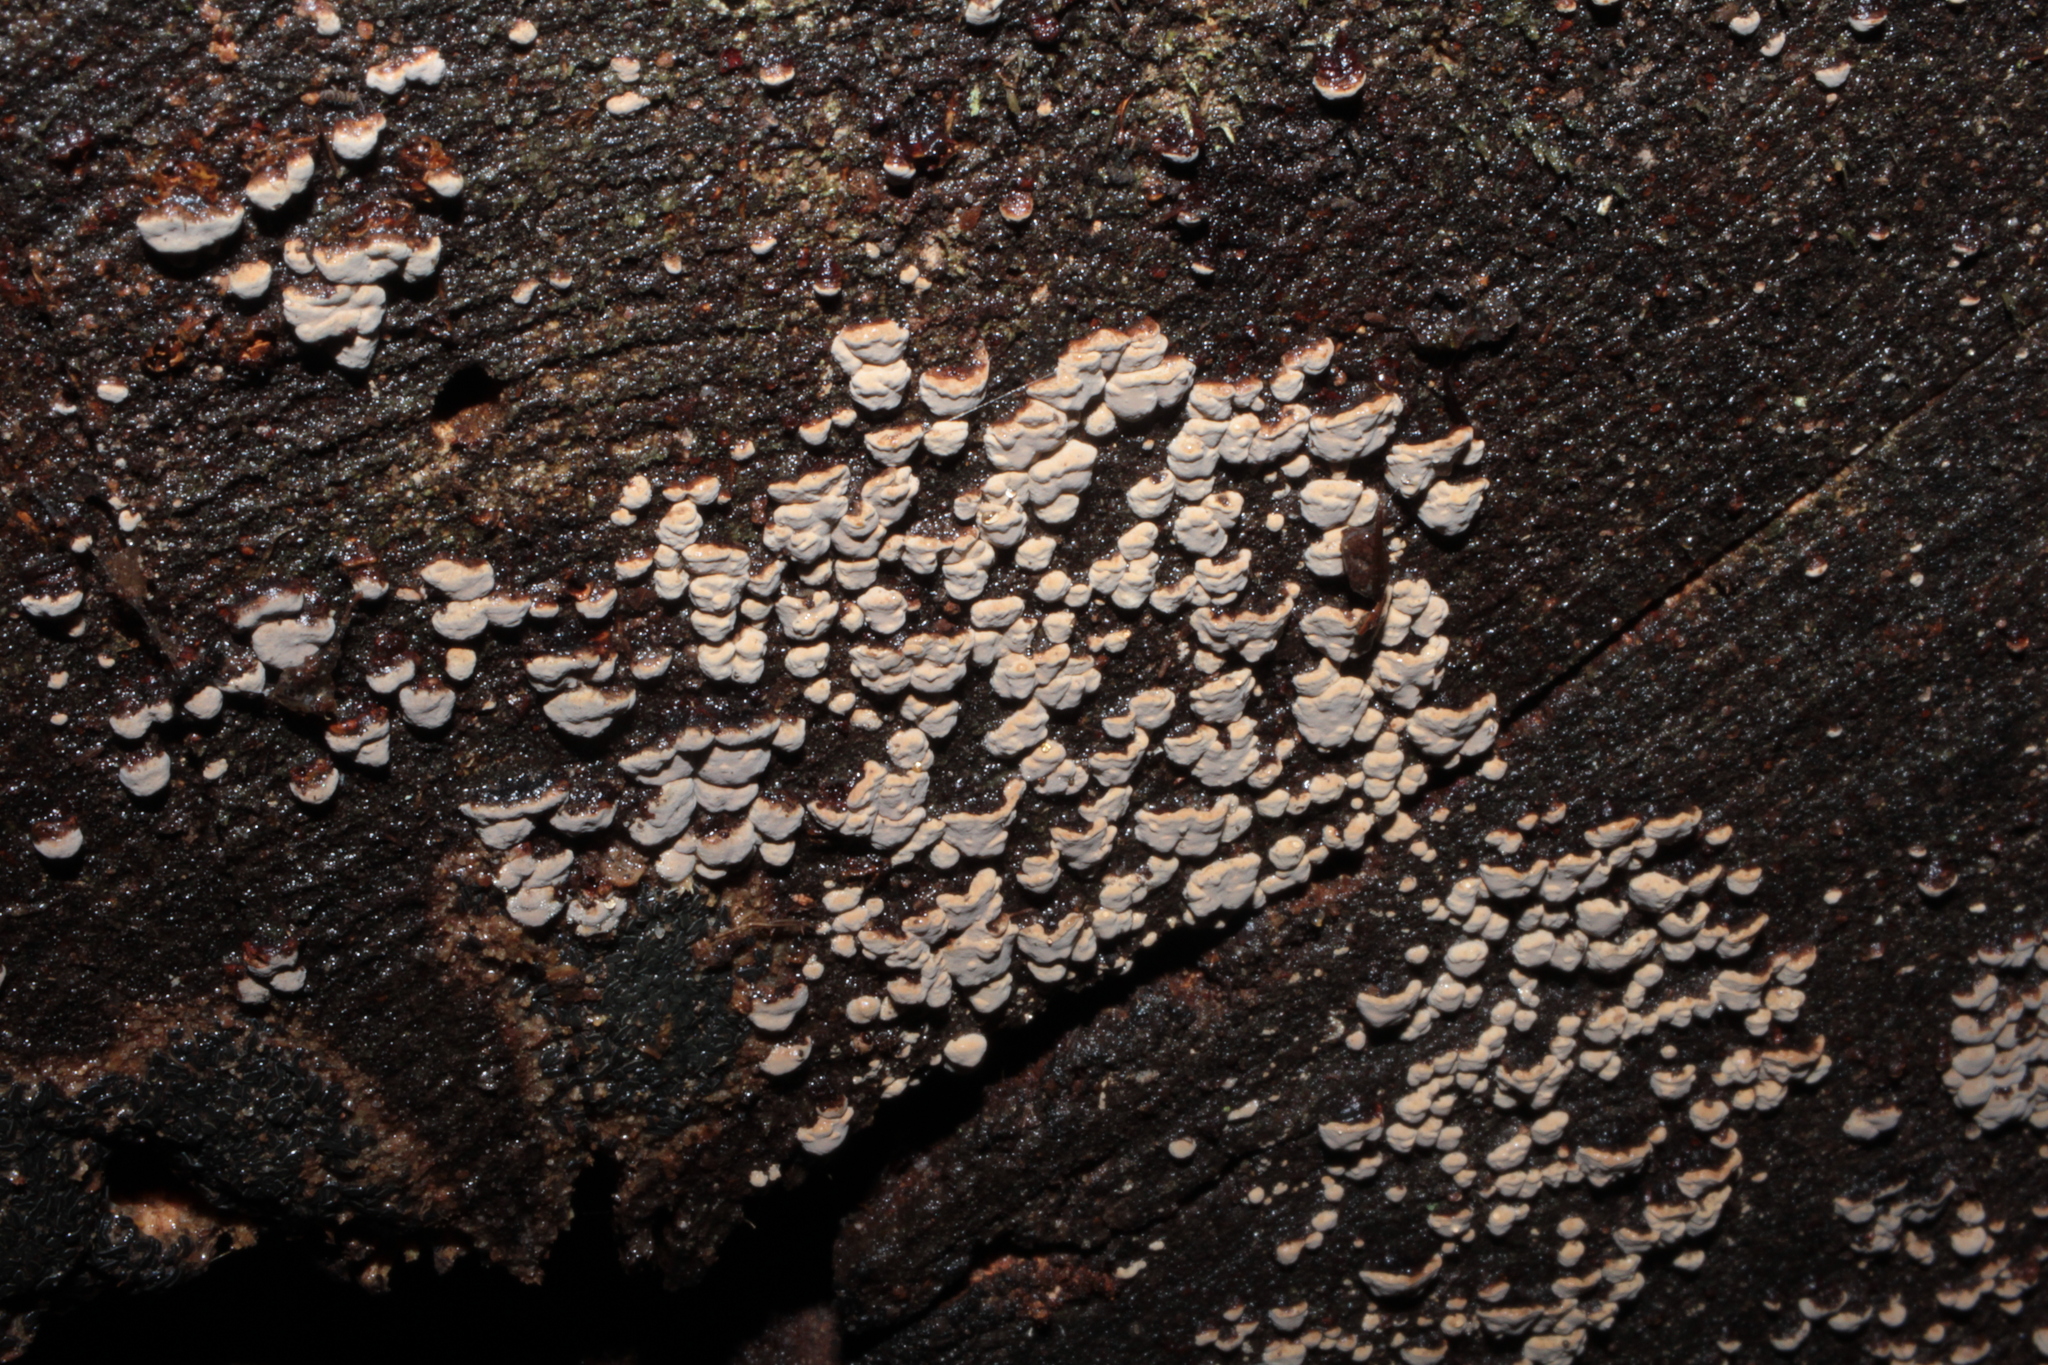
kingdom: Fungi
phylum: Basidiomycota
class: Agaricomycetes
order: Russulales
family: Stereaceae
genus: Xylobolus
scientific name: Xylobolus frustulatus
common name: Ceramic parchment
